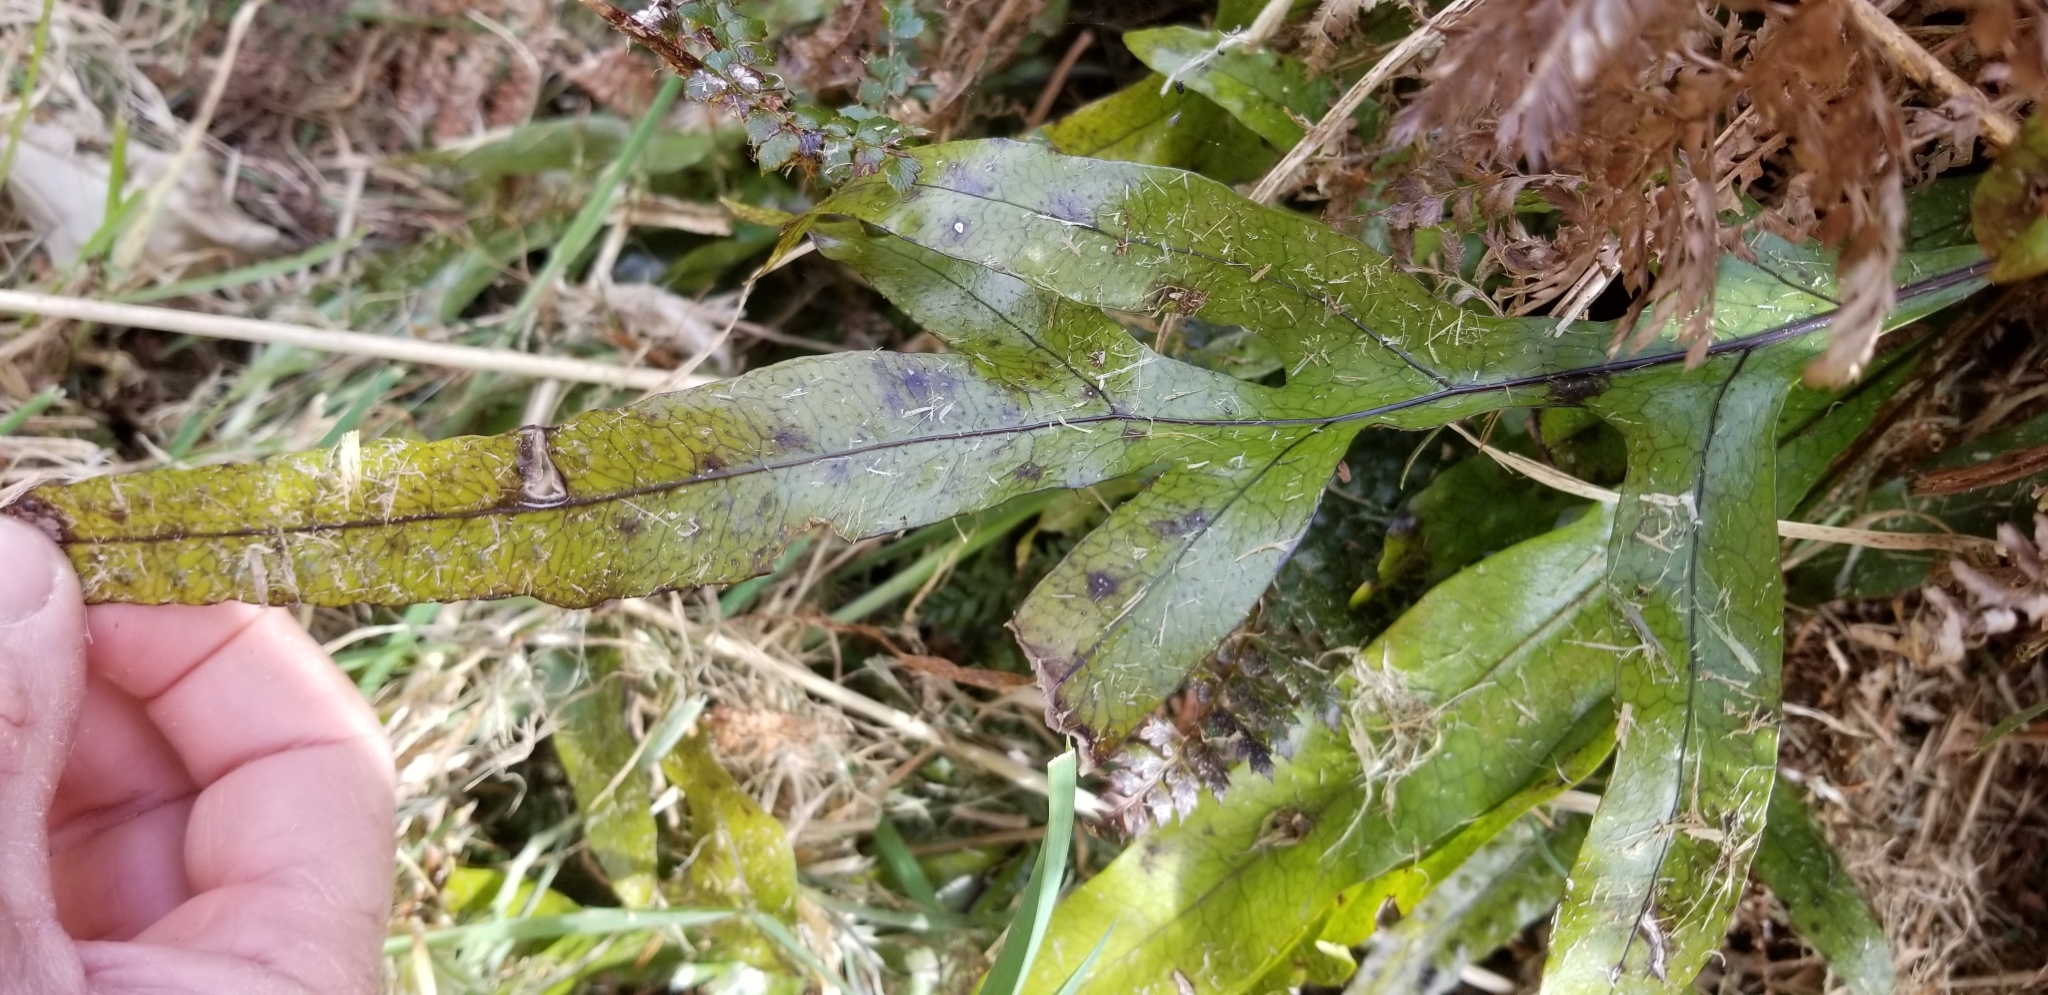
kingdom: Plantae
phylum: Tracheophyta
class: Polypodiopsida
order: Polypodiales
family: Polypodiaceae
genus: Lecanopteris
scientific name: Lecanopteris pustulata
